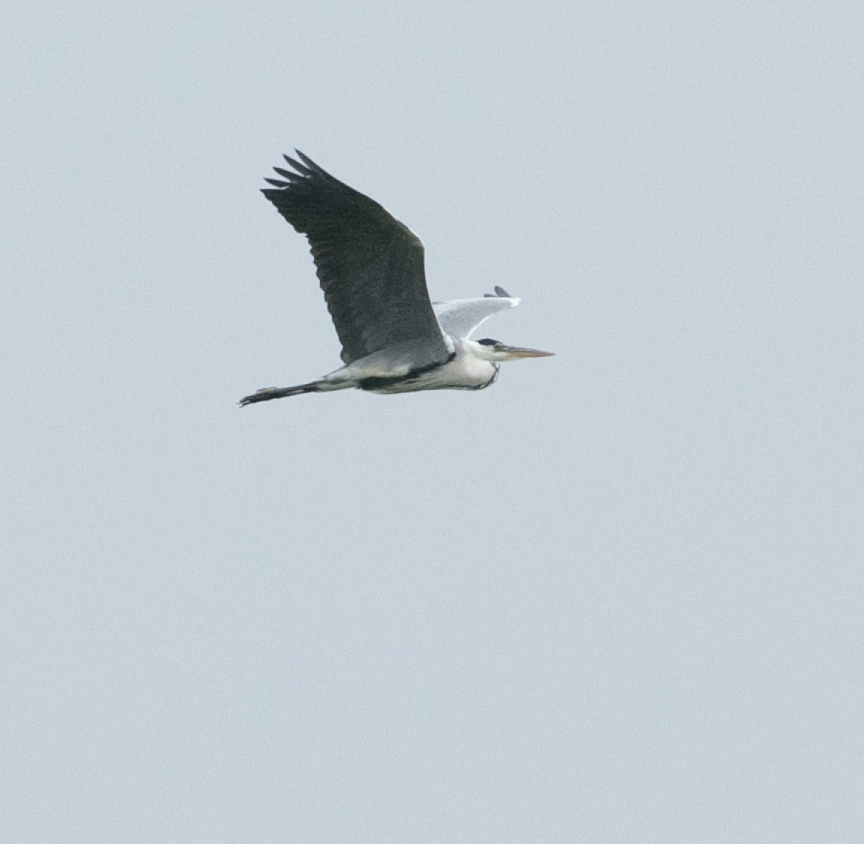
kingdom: Animalia
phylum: Chordata
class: Aves
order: Pelecaniformes
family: Ardeidae
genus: Ardea
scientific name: Ardea cinerea
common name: Grey heron
